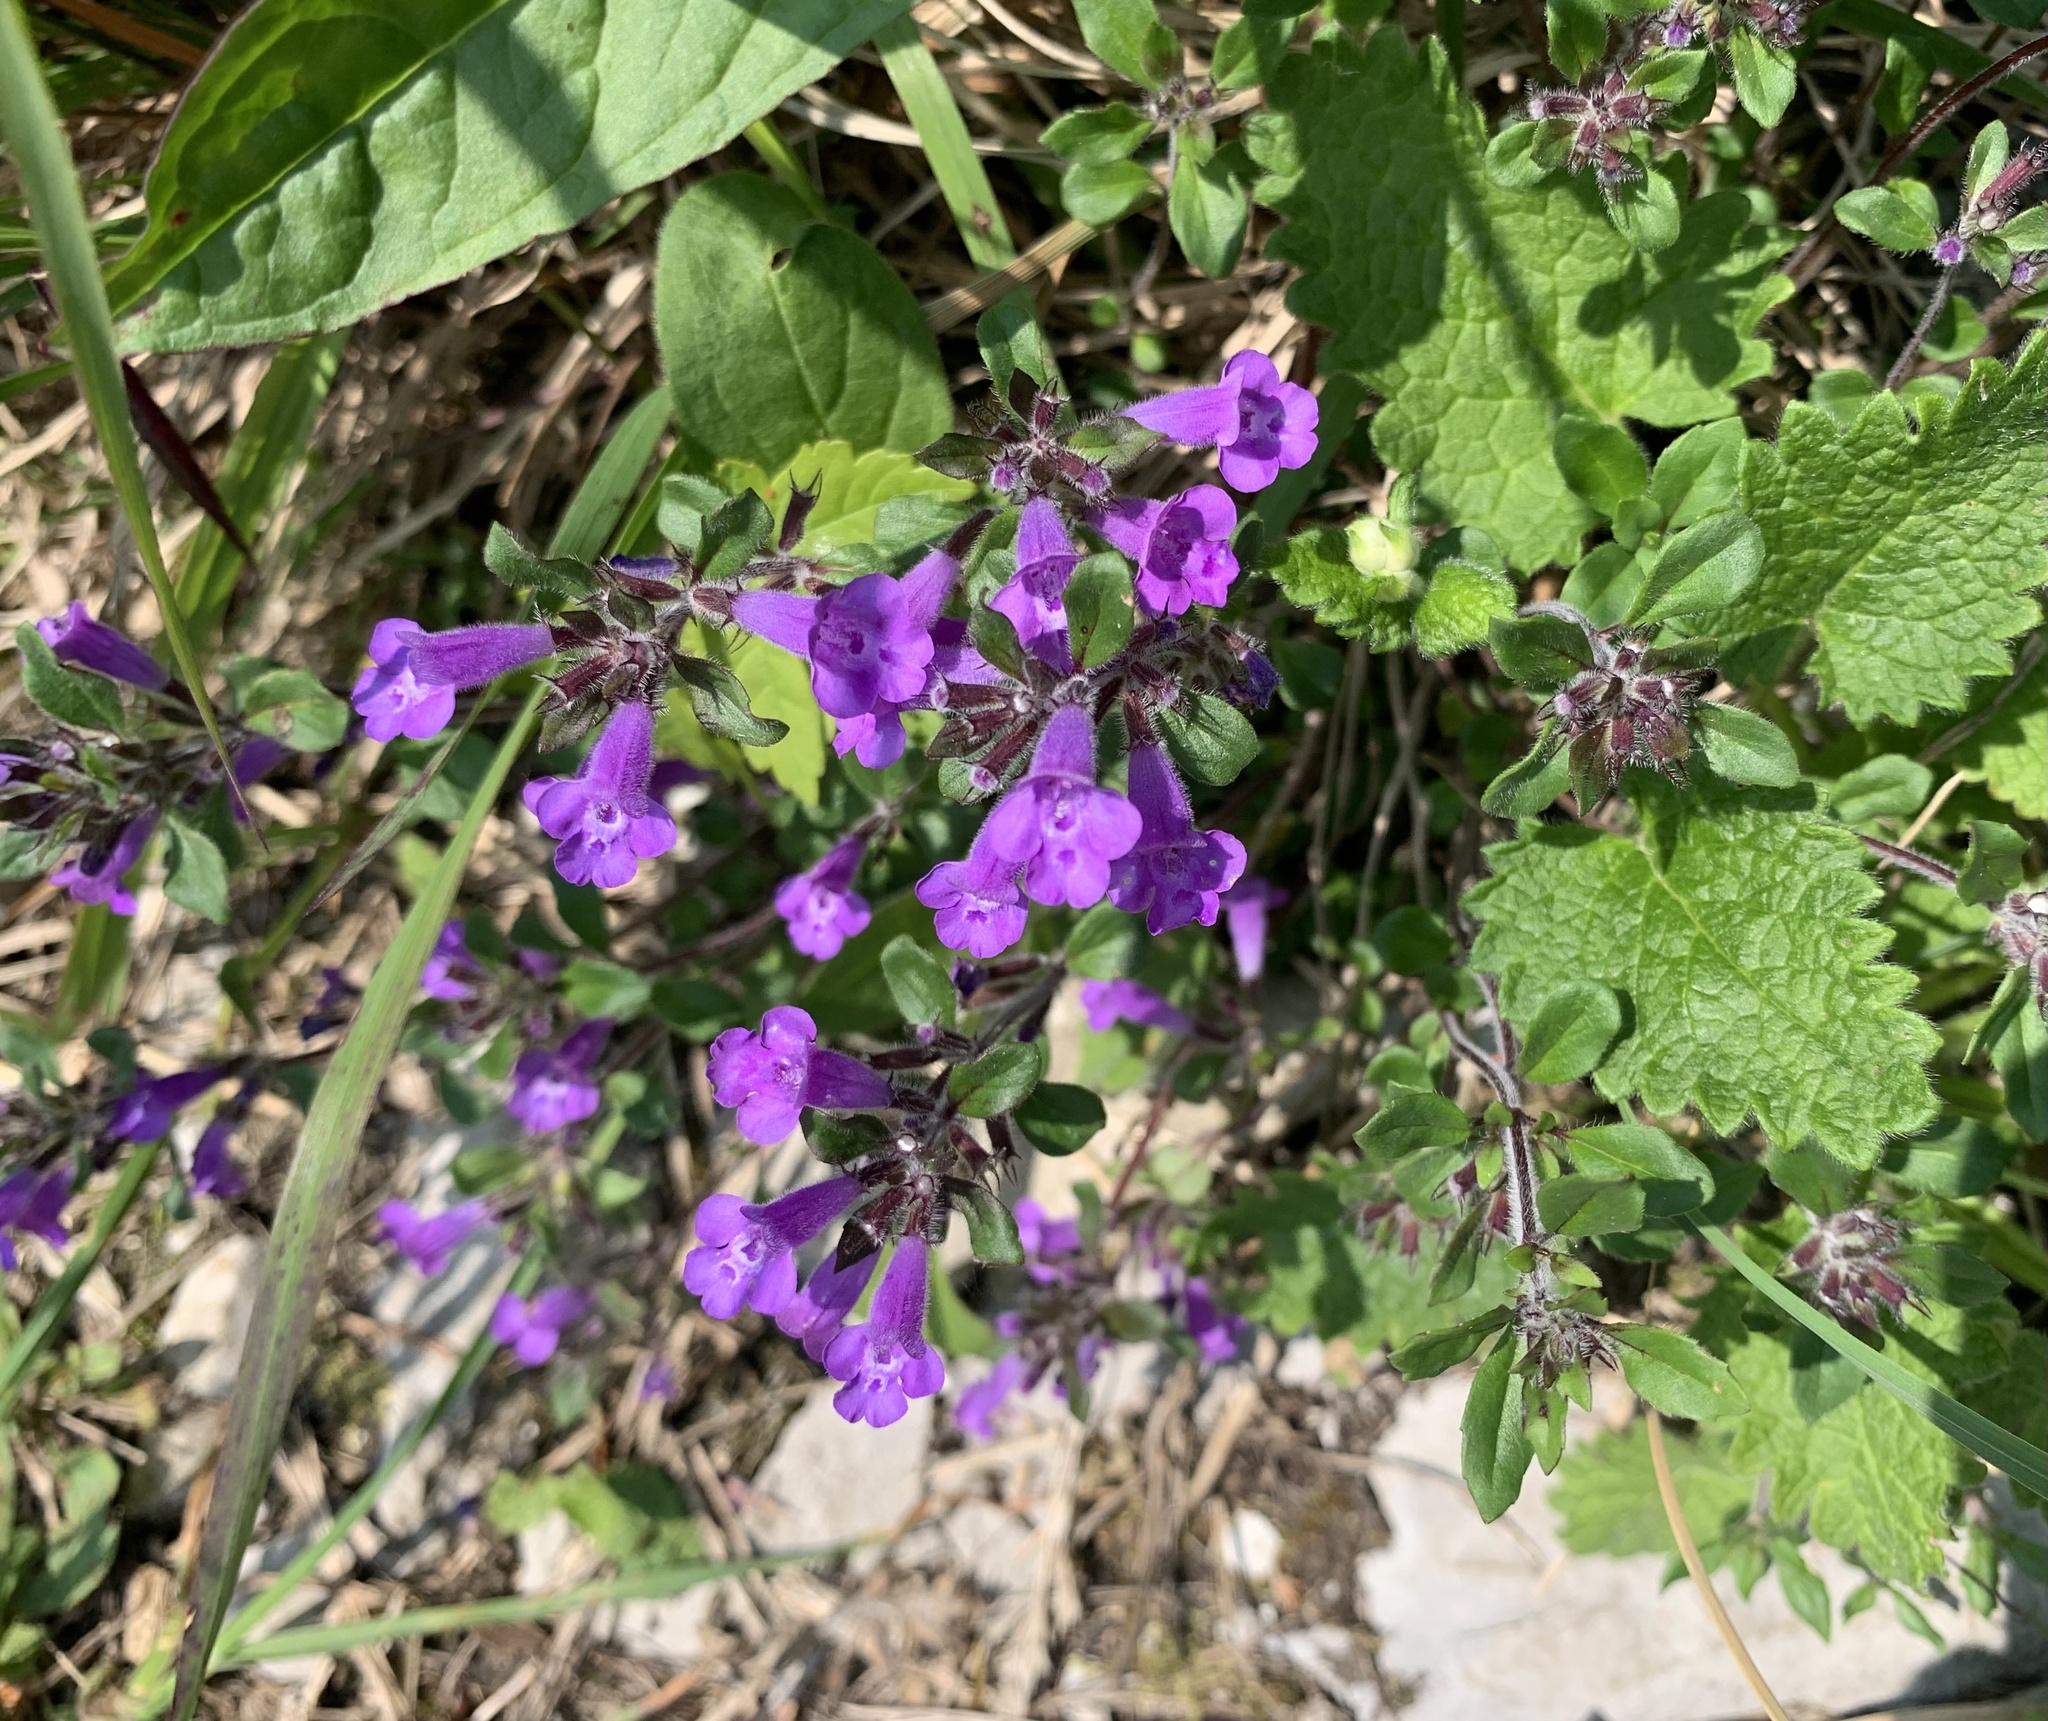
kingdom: Plantae
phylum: Tracheophyta
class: Magnoliopsida
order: Lamiales
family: Lamiaceae
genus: Clinopodium
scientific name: Clinopodium alpinum
